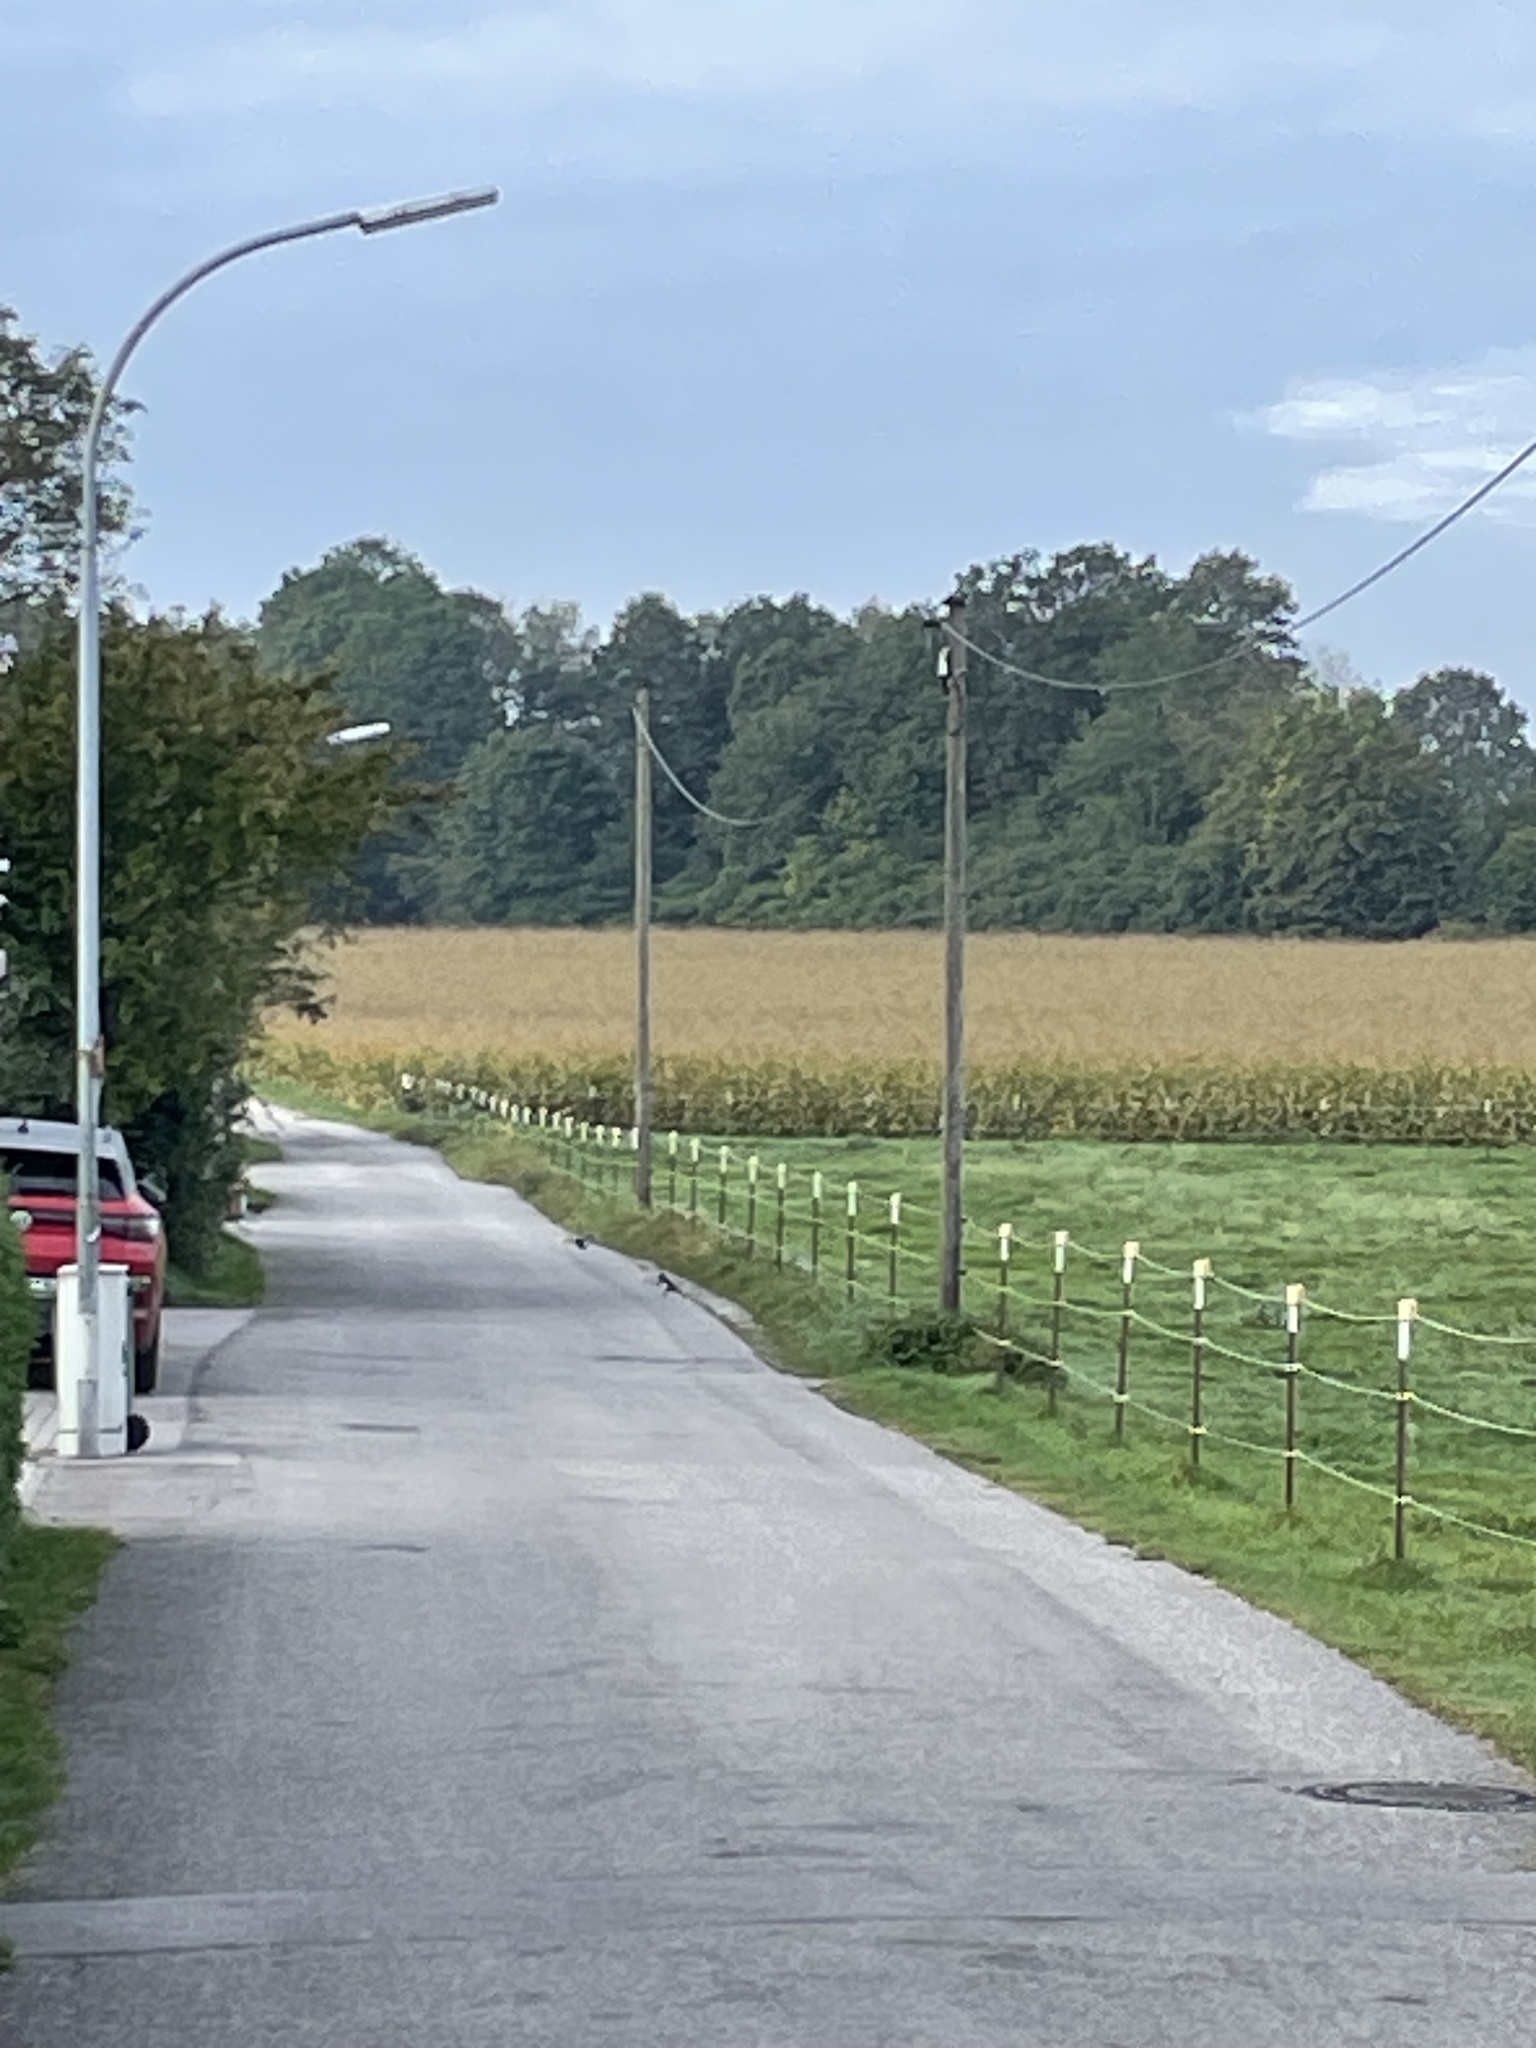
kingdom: Animalia
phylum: Chordata
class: Aves
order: Passeriformes
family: Corvidae
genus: Pica
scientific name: Pica pica
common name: Eurasian magpie
